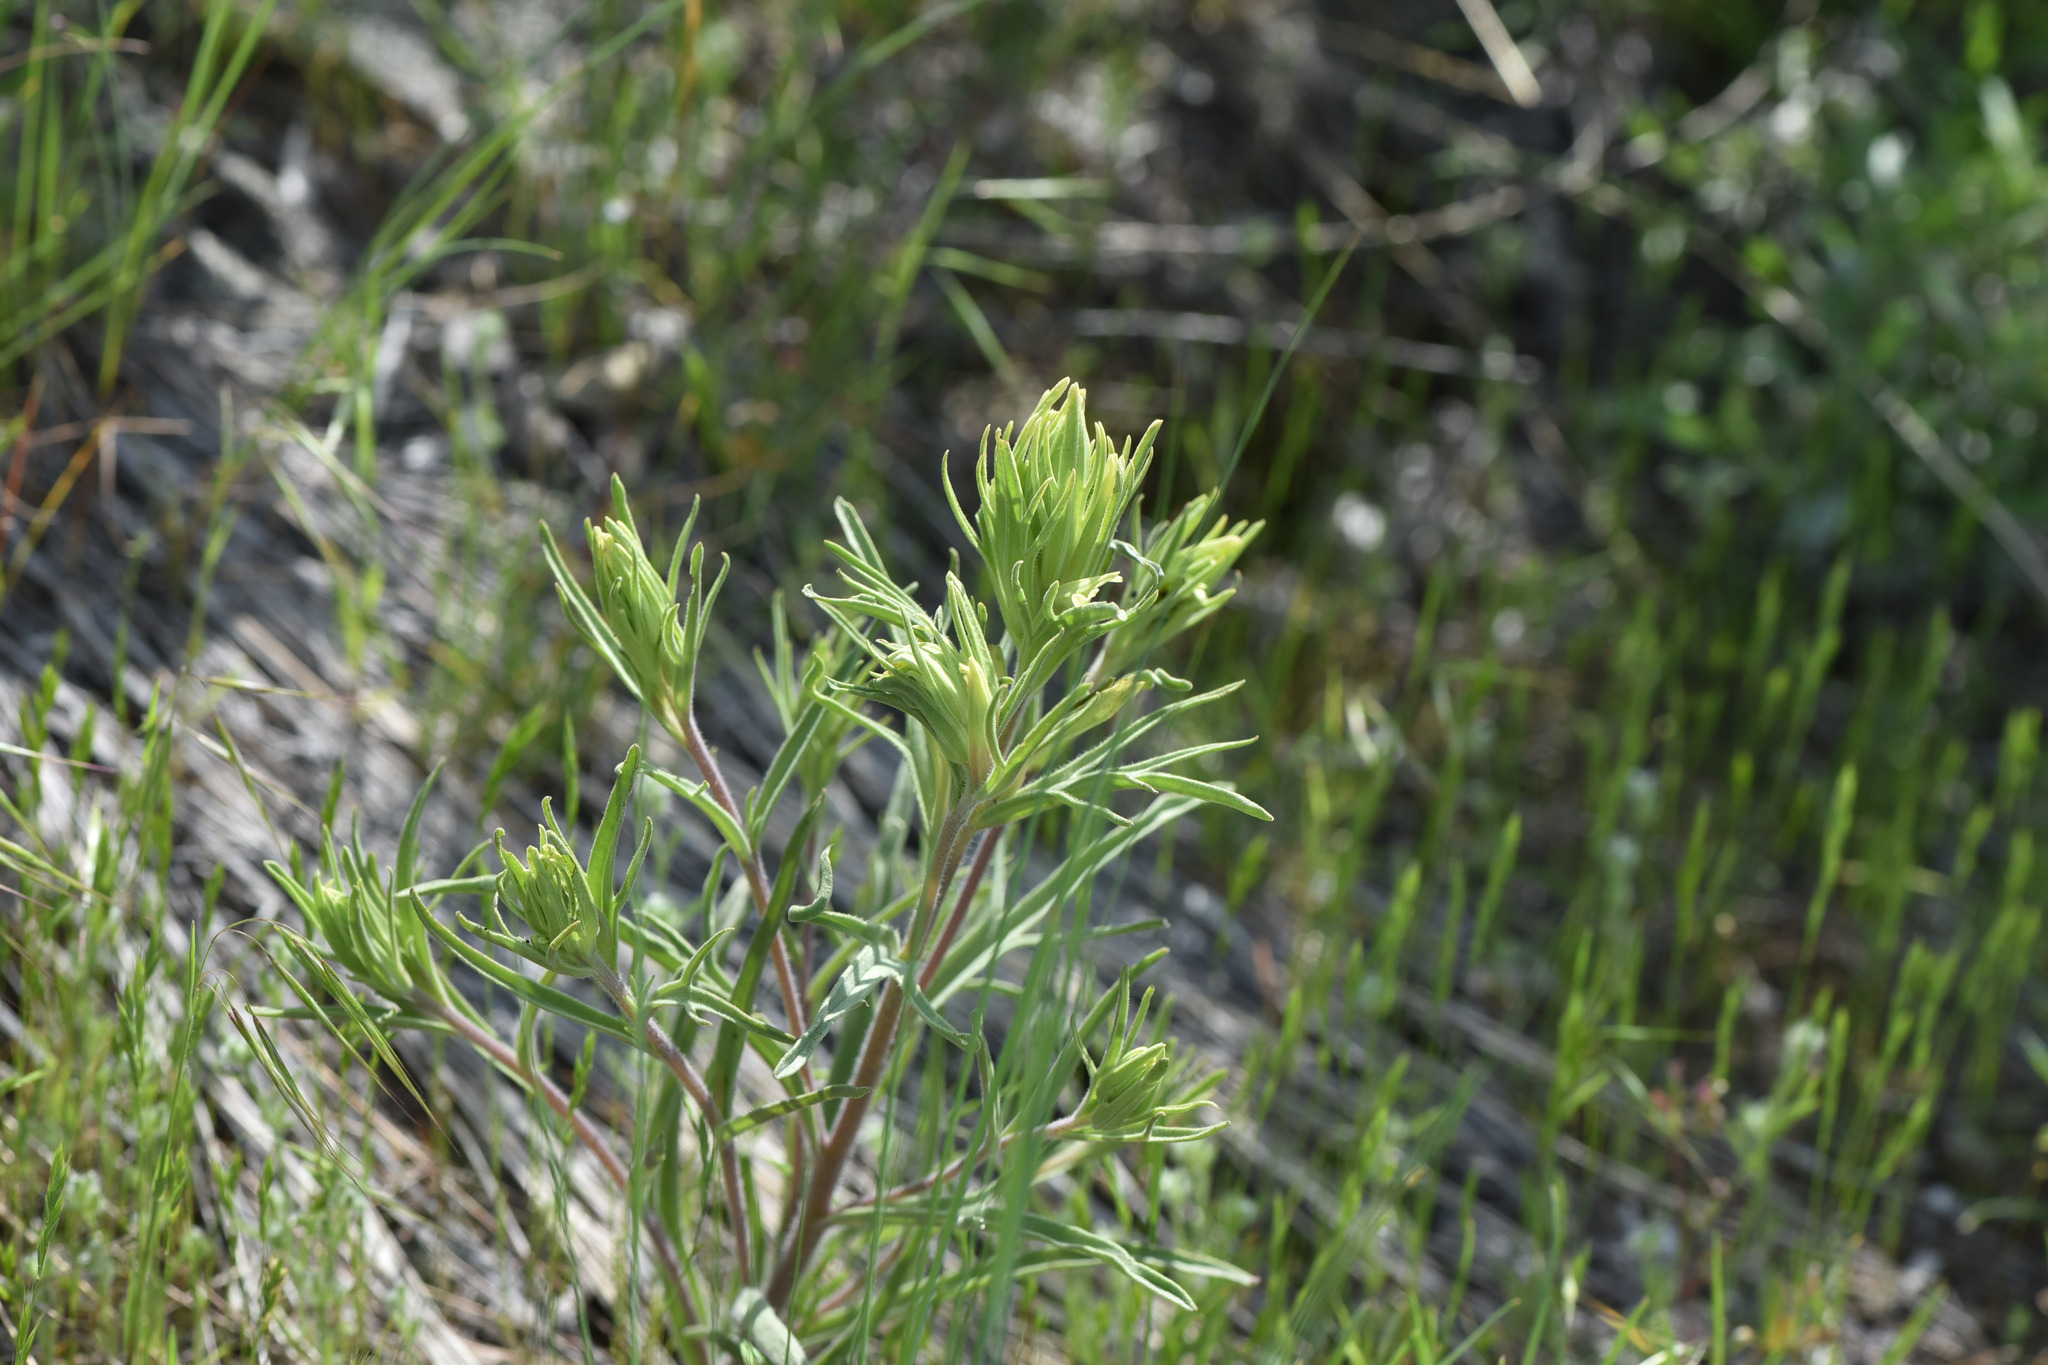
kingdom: Plantae
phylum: Tracheophyta
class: Magnoliopsida
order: Lamiales
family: Orobanchaceae
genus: Castilleja
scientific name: Castilleja thompsonii
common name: Thompson's paintbrush
